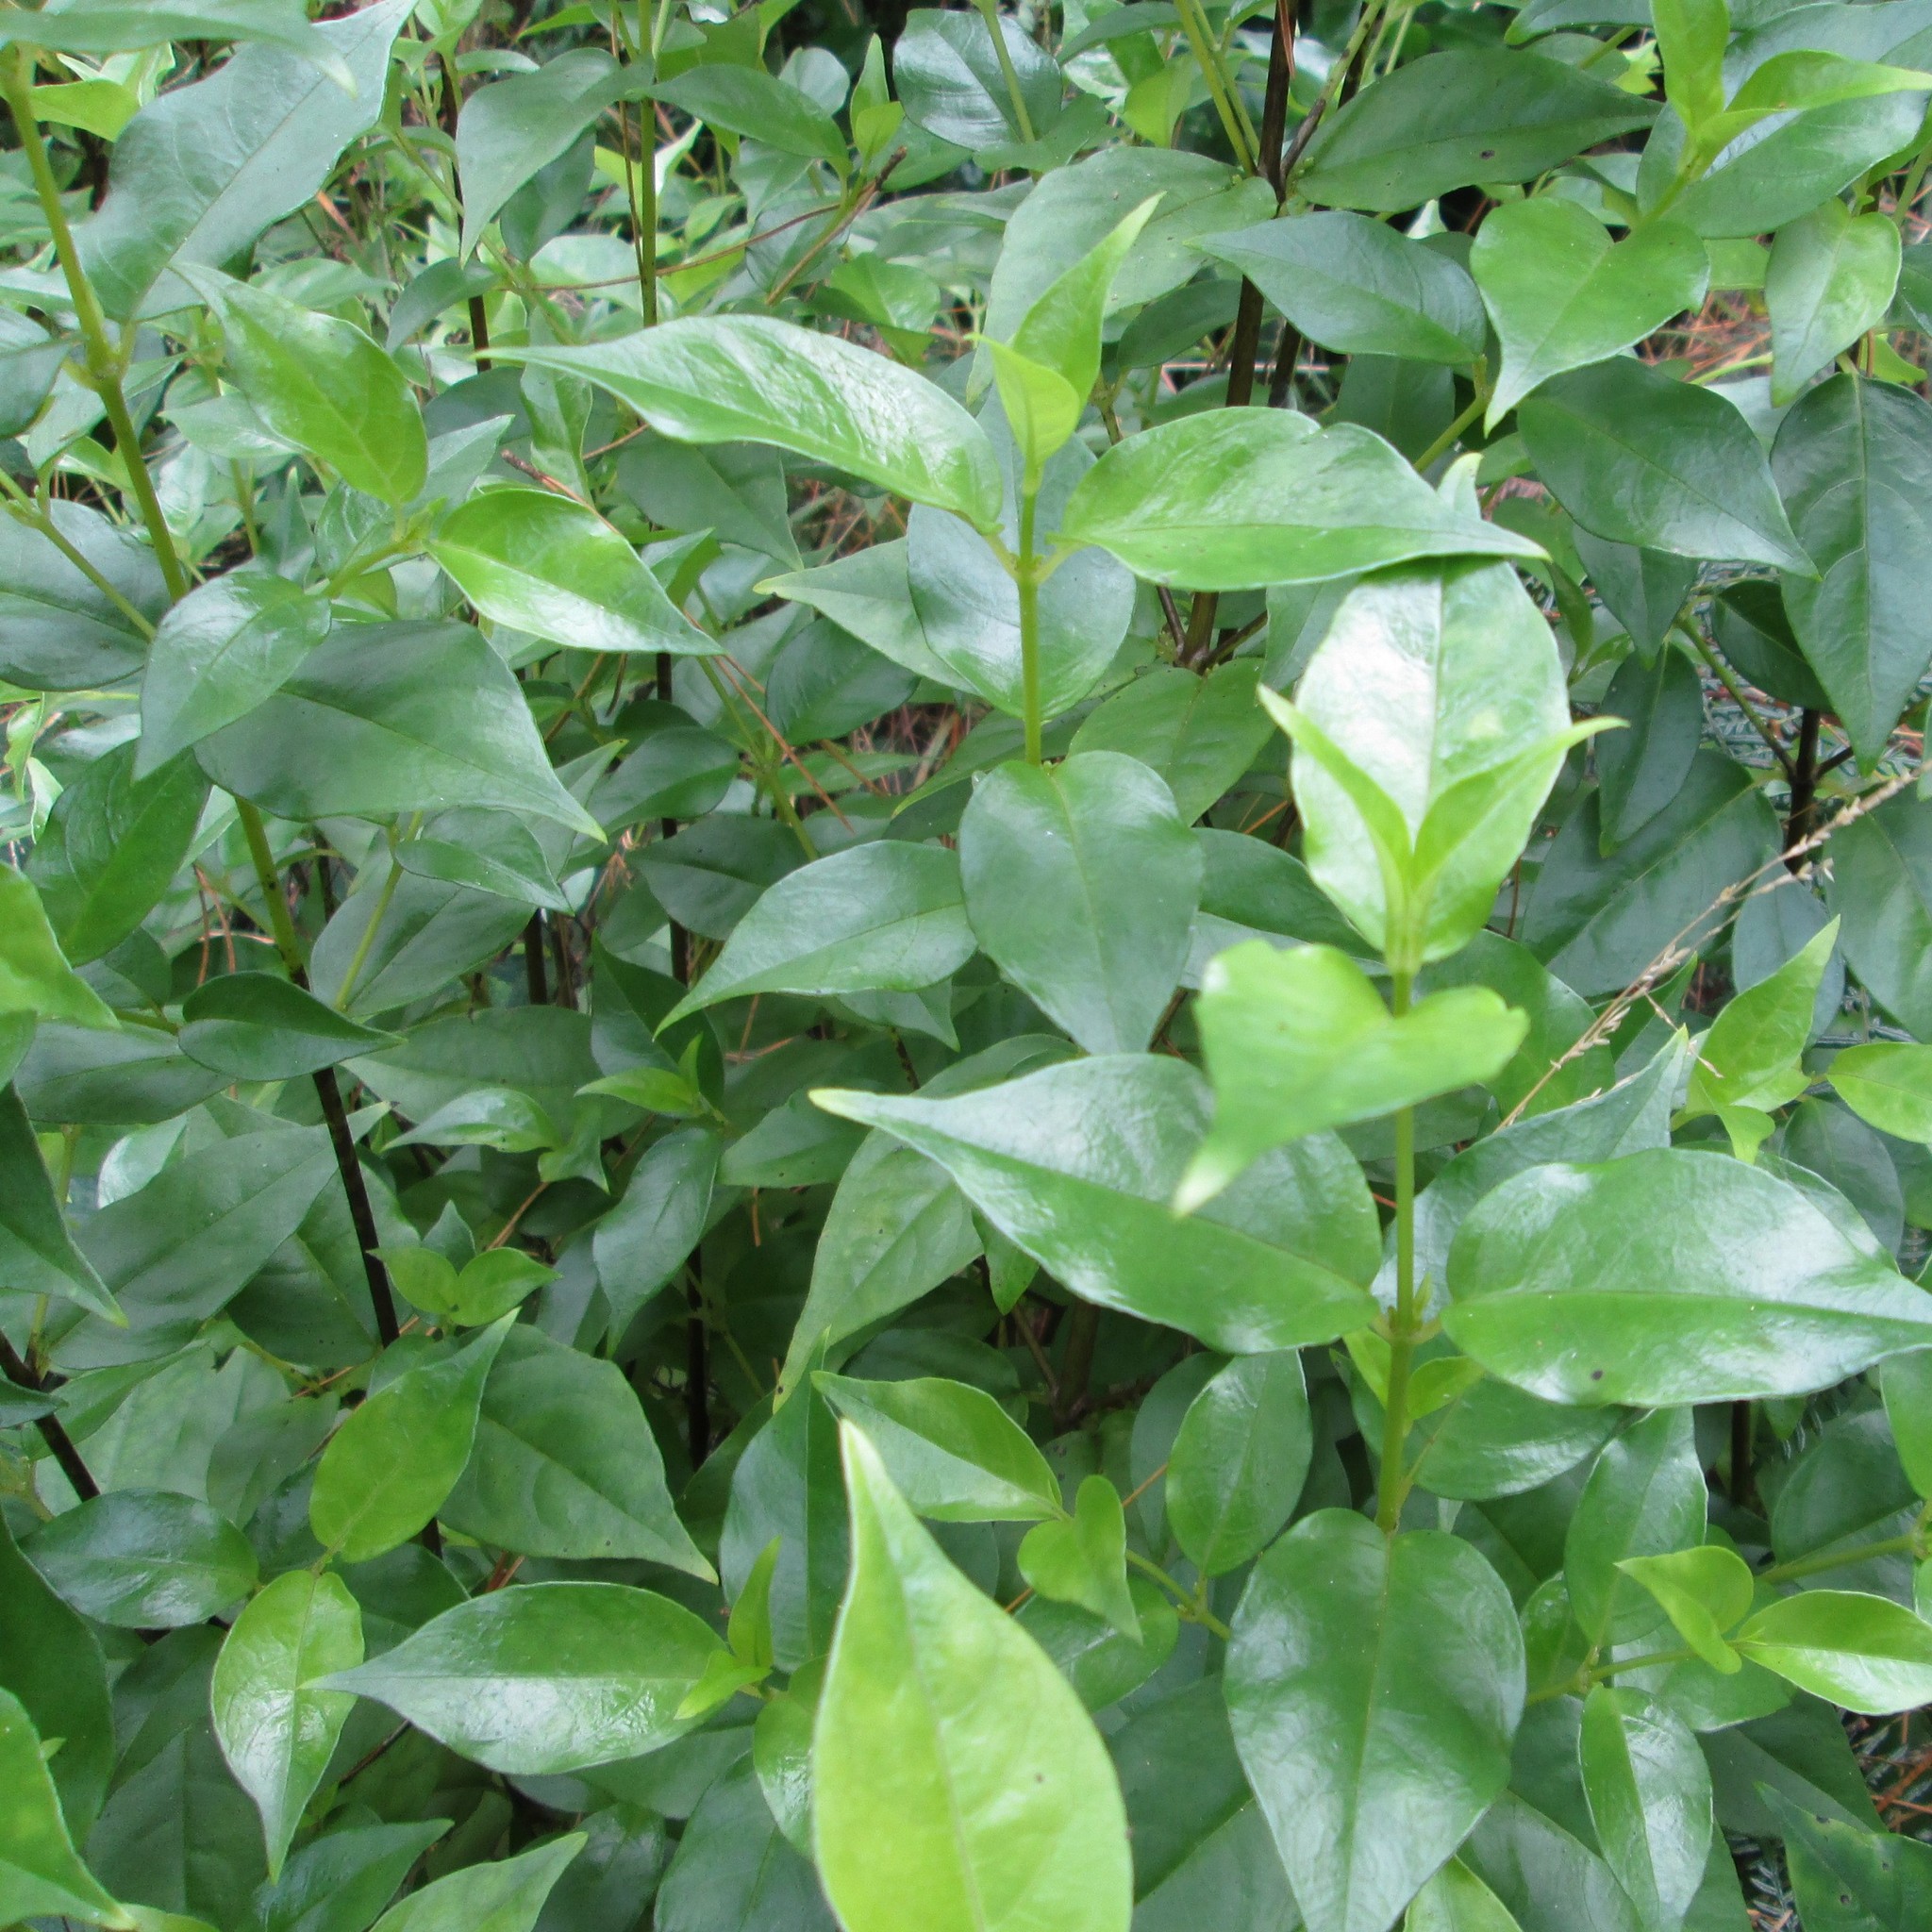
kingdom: Plantae
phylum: Tracheophyta
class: Magnoliopsida
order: Gentianales
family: Loganiaceae
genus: Geniostoma
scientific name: Geniostoma ligustrifolium
